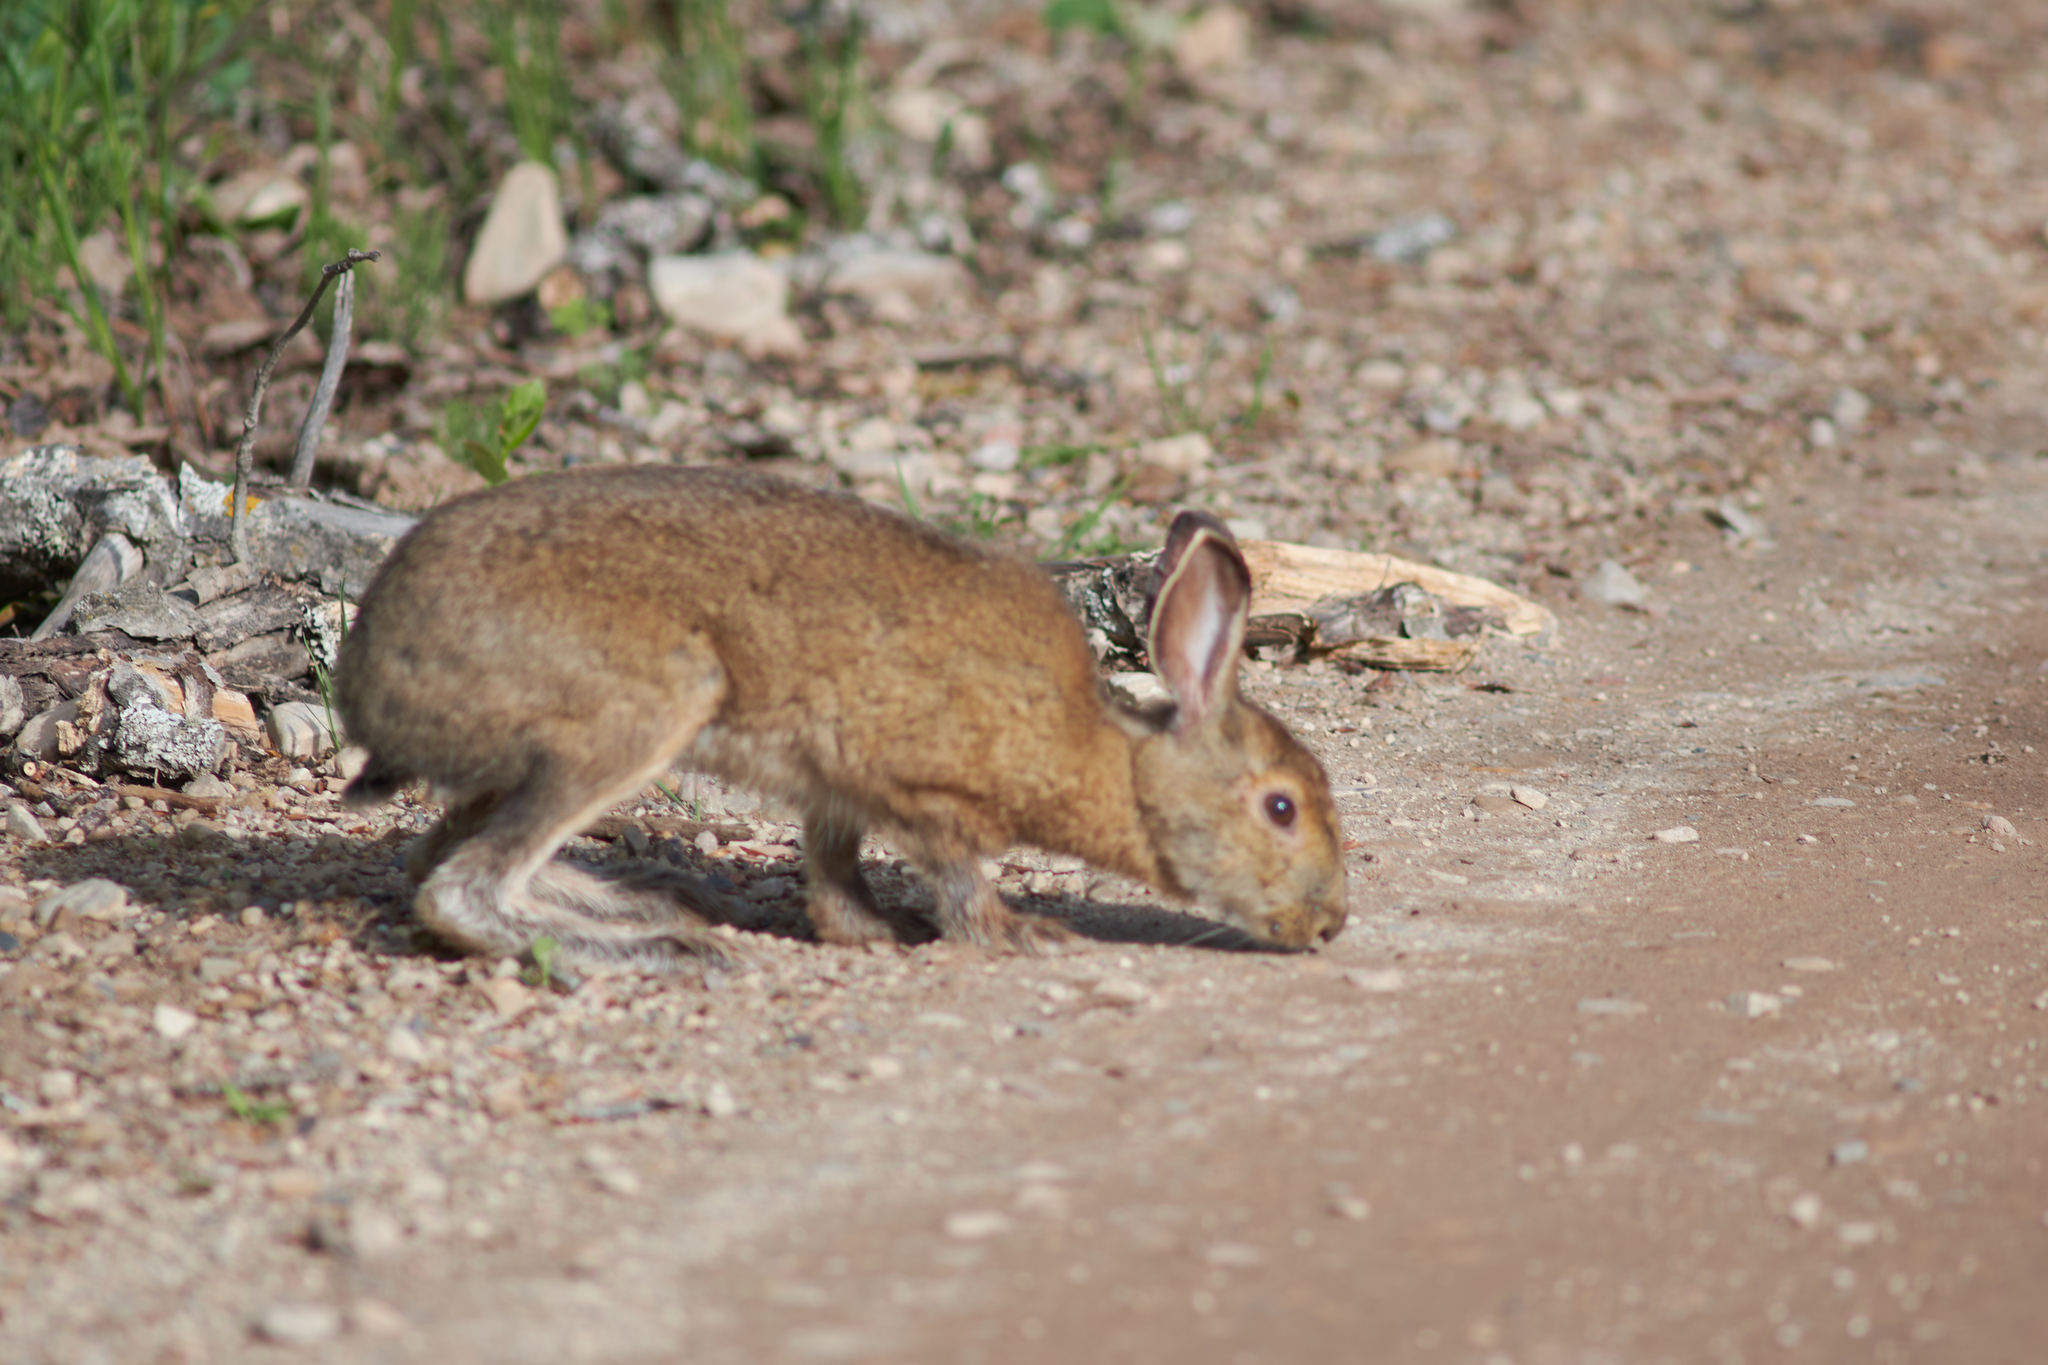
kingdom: Animalia
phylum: Chordata
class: Mammalia
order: Lagomorpha
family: Leporidae
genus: Lepus
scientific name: Lepus americanus
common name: Snowshoe hare
